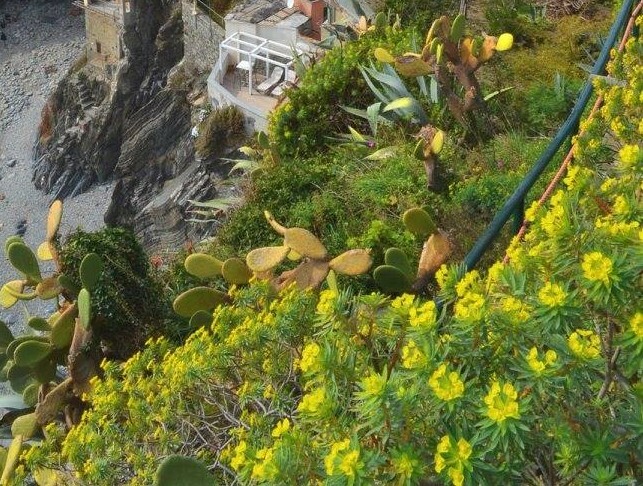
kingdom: Plantae
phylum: Tracheophyta
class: Magnoliopsida
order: Malpighiales
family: Euphorbiaceae
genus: Euphorbia
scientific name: Euphorbia dendroides
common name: Tree spurge
